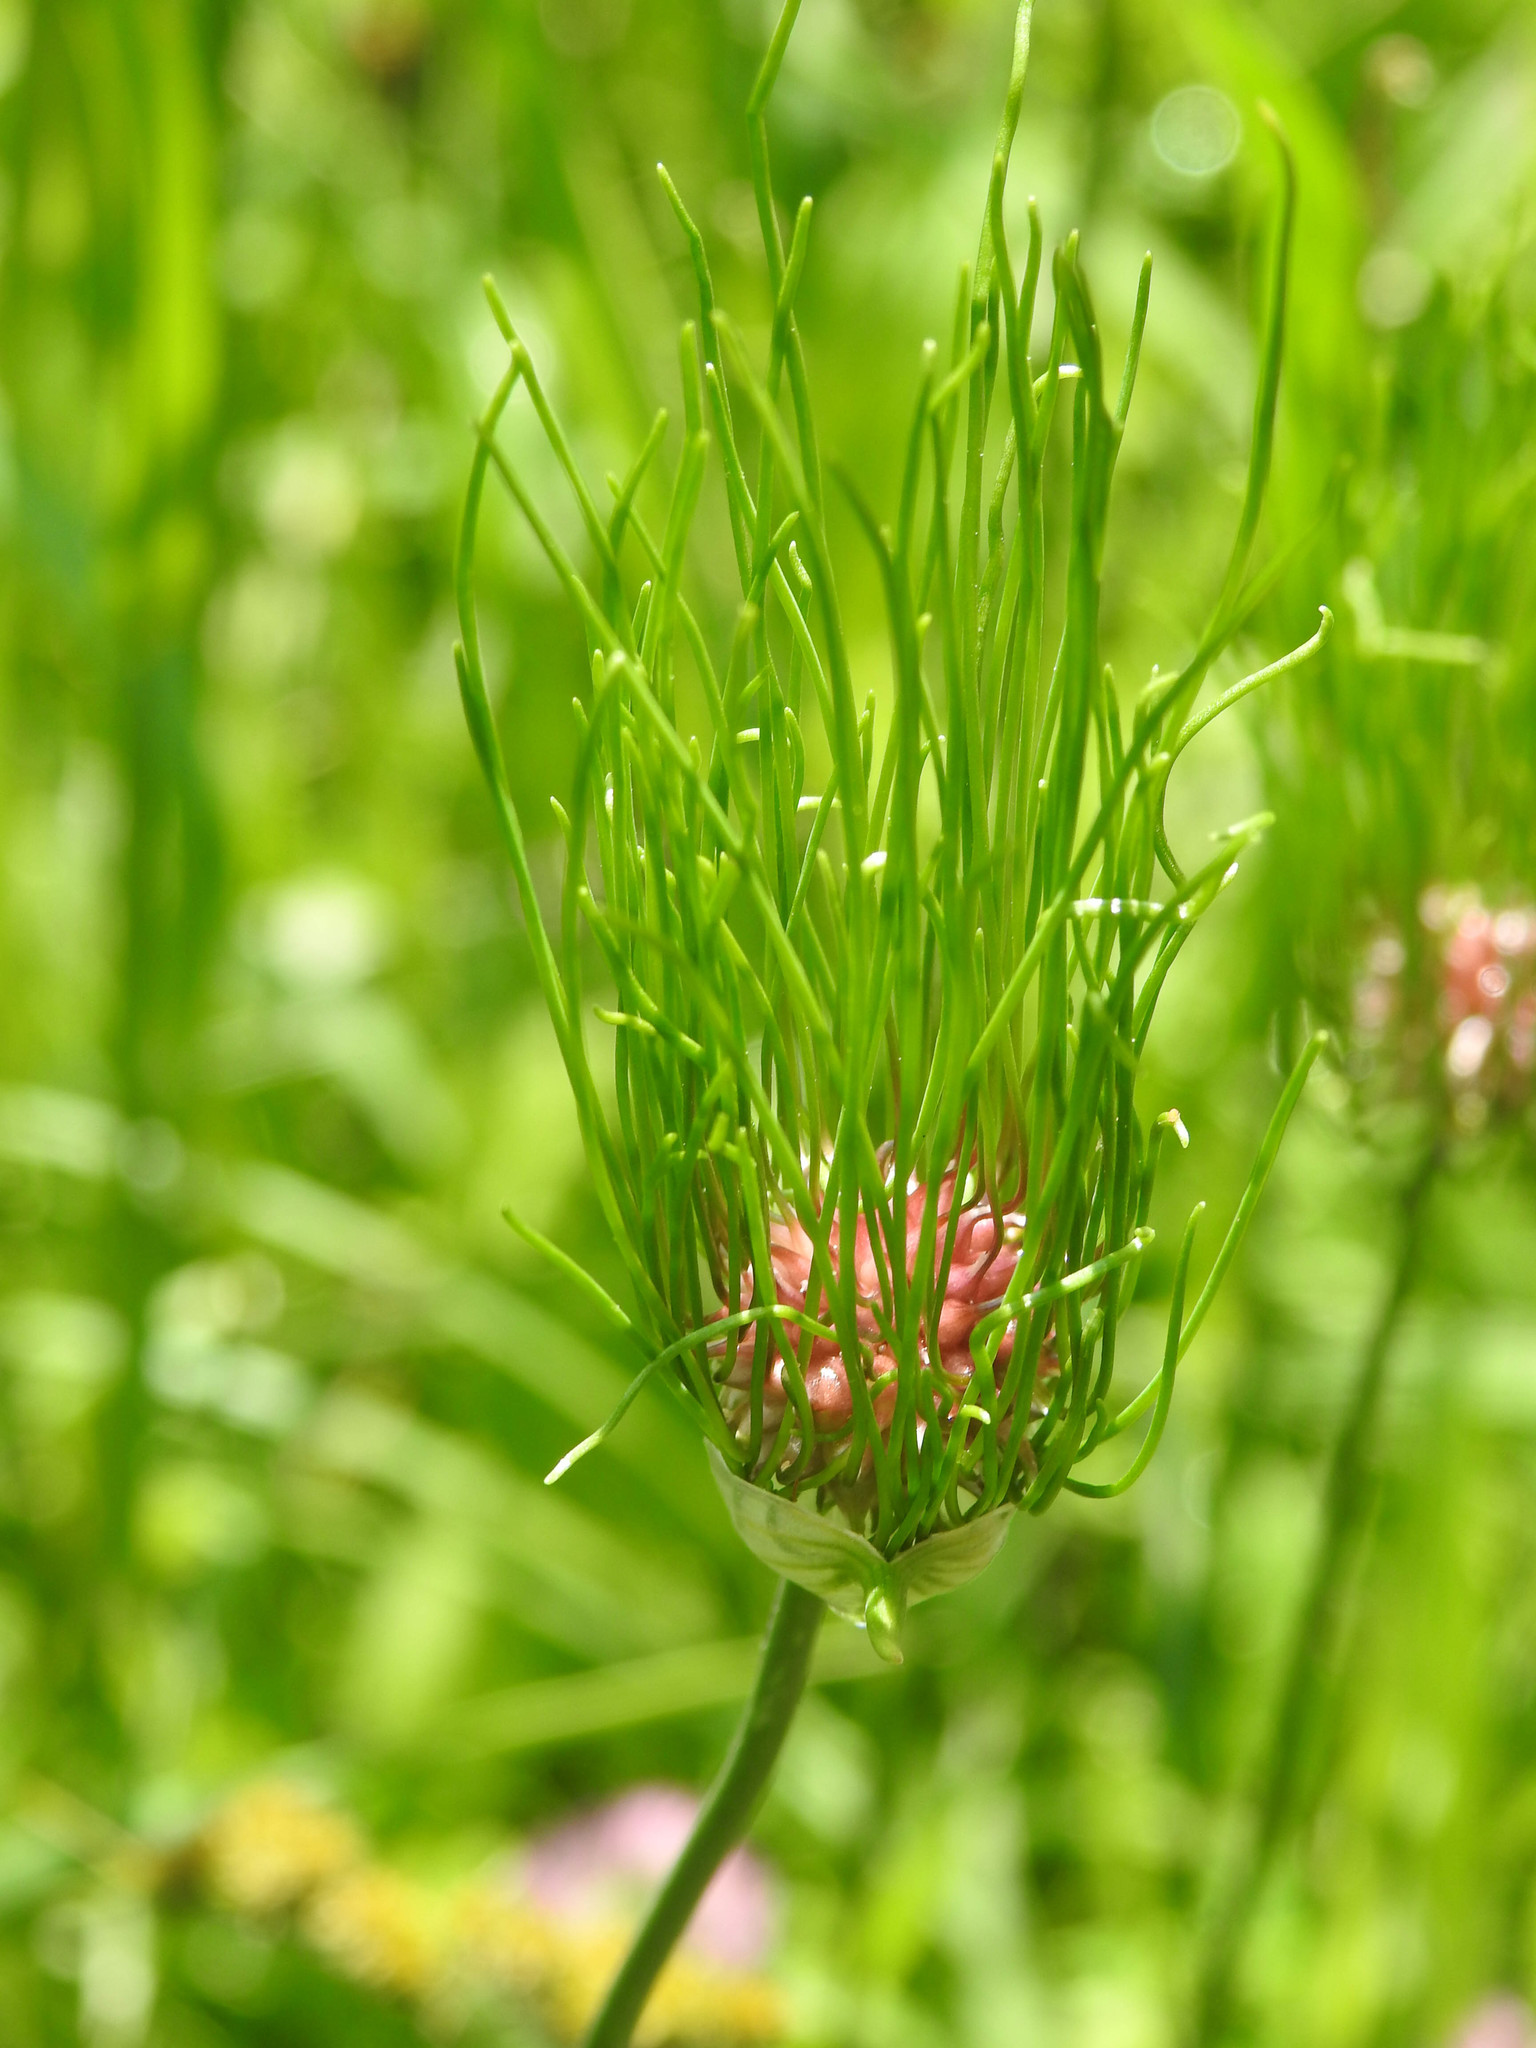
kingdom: Plantae
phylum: Tracheophyta
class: Liliopsida
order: Asparagales
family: Amaryllidaceae
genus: Allium
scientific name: Allium vineale
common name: Crow garlic
